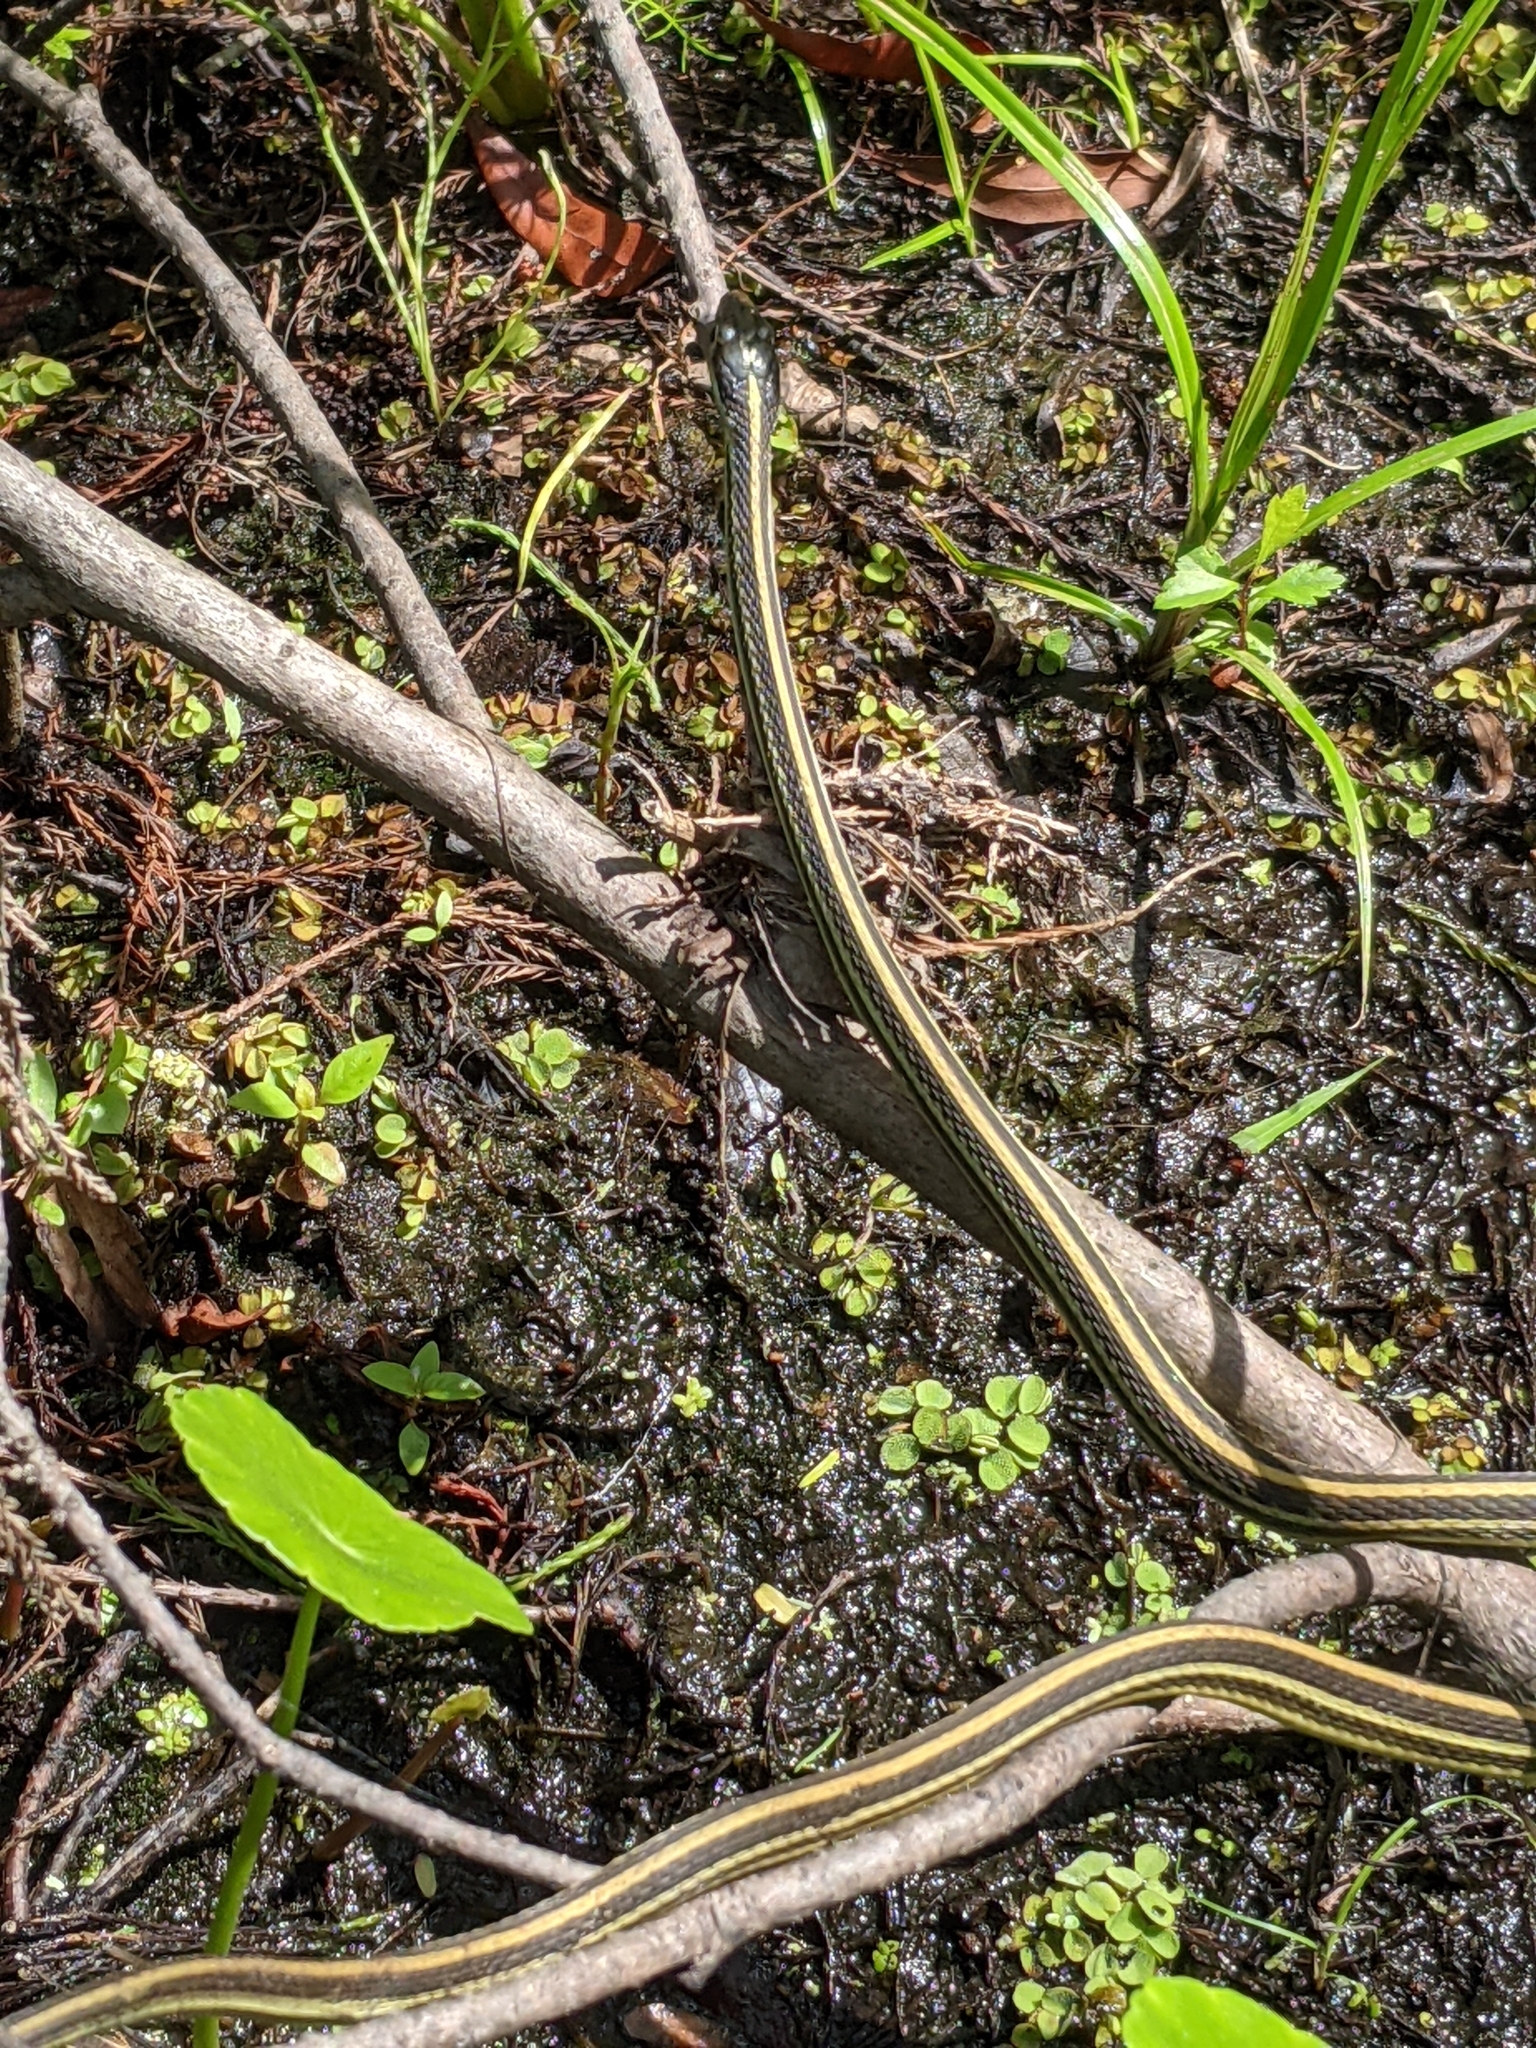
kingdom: Animalia
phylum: Chordata
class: Squamata
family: Colubridae
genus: Thamnophis
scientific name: Thamnophis proximus
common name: Western ribbon snake
